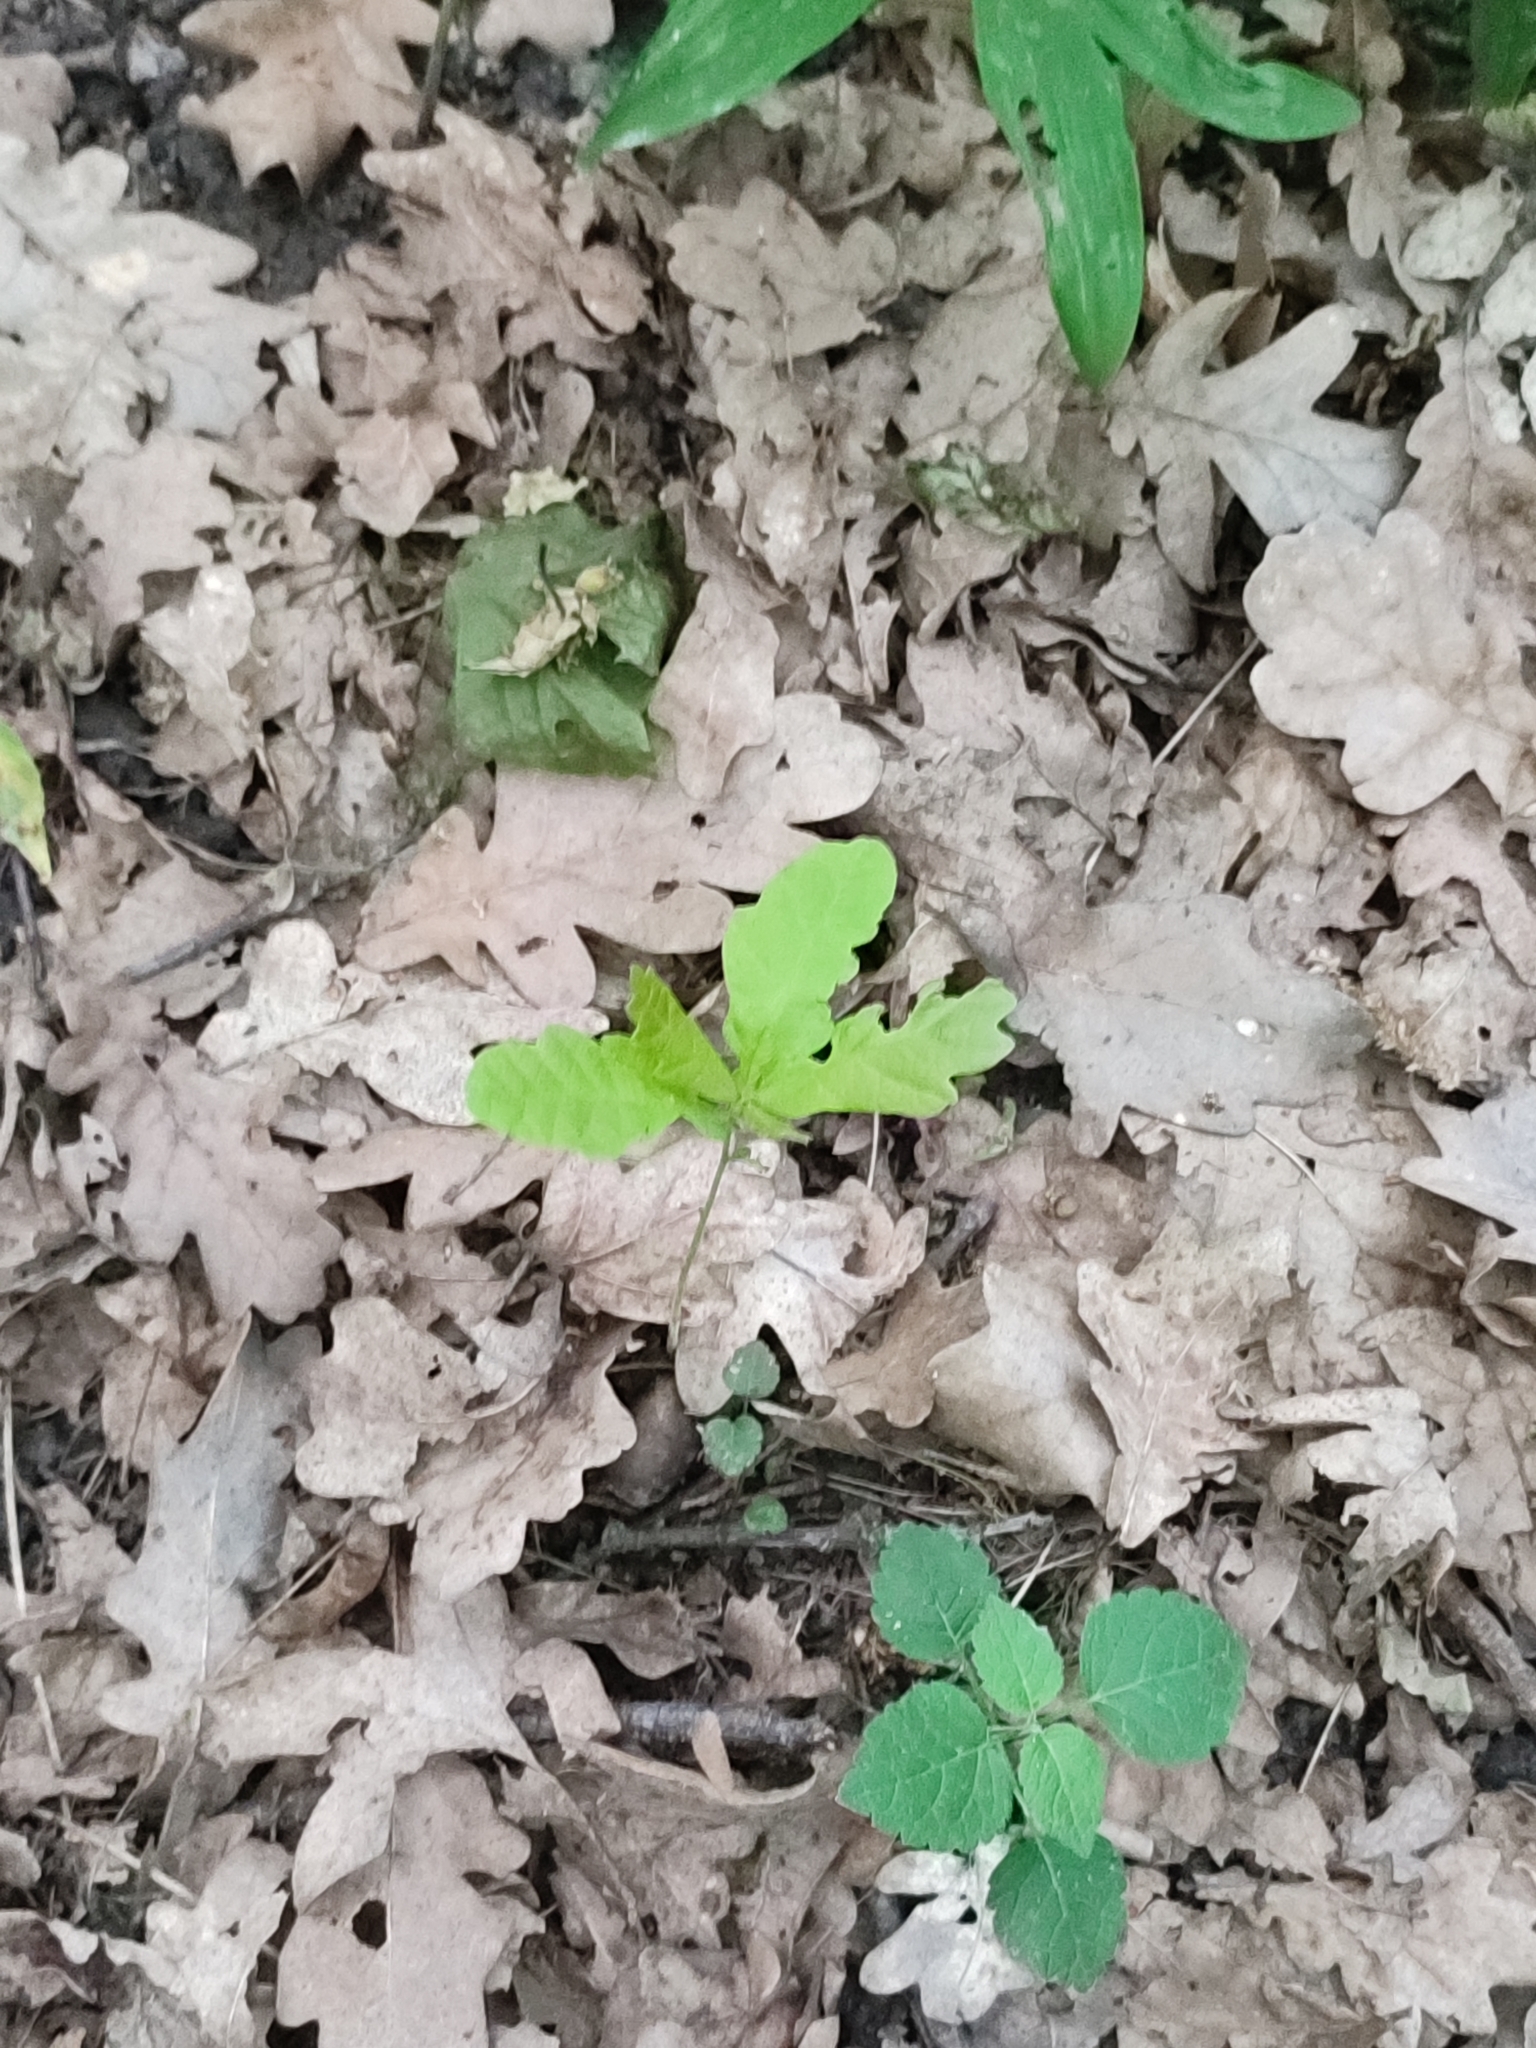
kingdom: Plantae
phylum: Tracheophyta
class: Magnoliopsida
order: Fagales
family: Fagaceae
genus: Quercus
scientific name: Quercus robur
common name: Pedunculate oak
